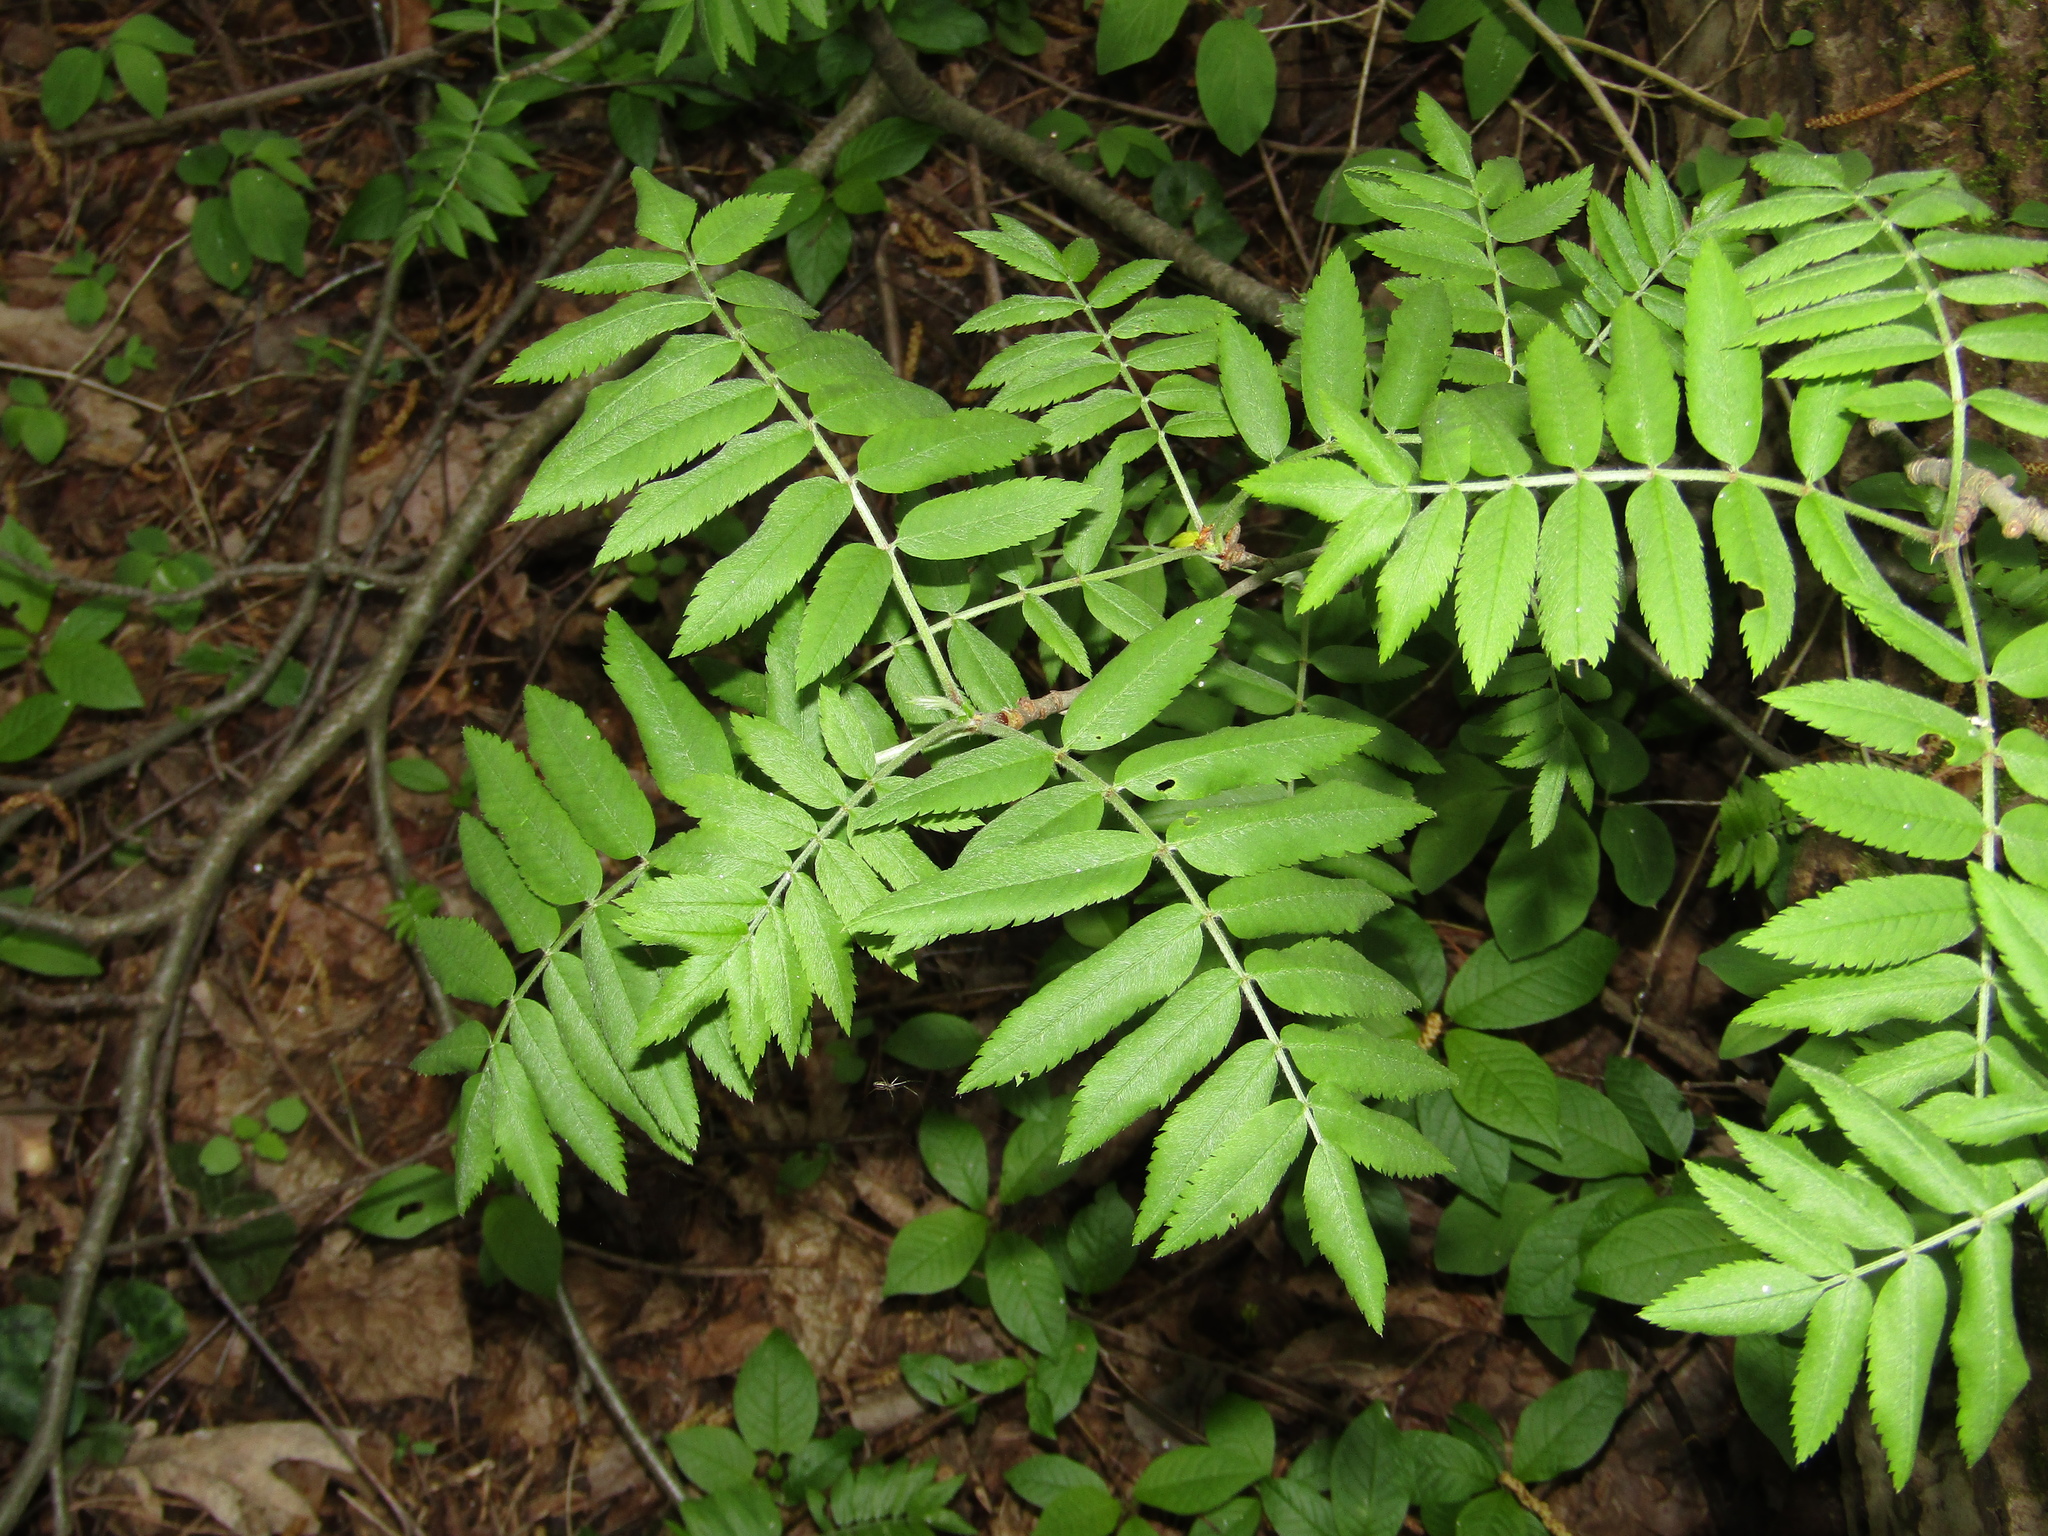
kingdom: Plantae
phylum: Tracheophyta
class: Magnoliopsida
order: Rosales
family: Rosaceae
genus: Sorbus
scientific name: Sorbus aucuparia
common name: Rowan
